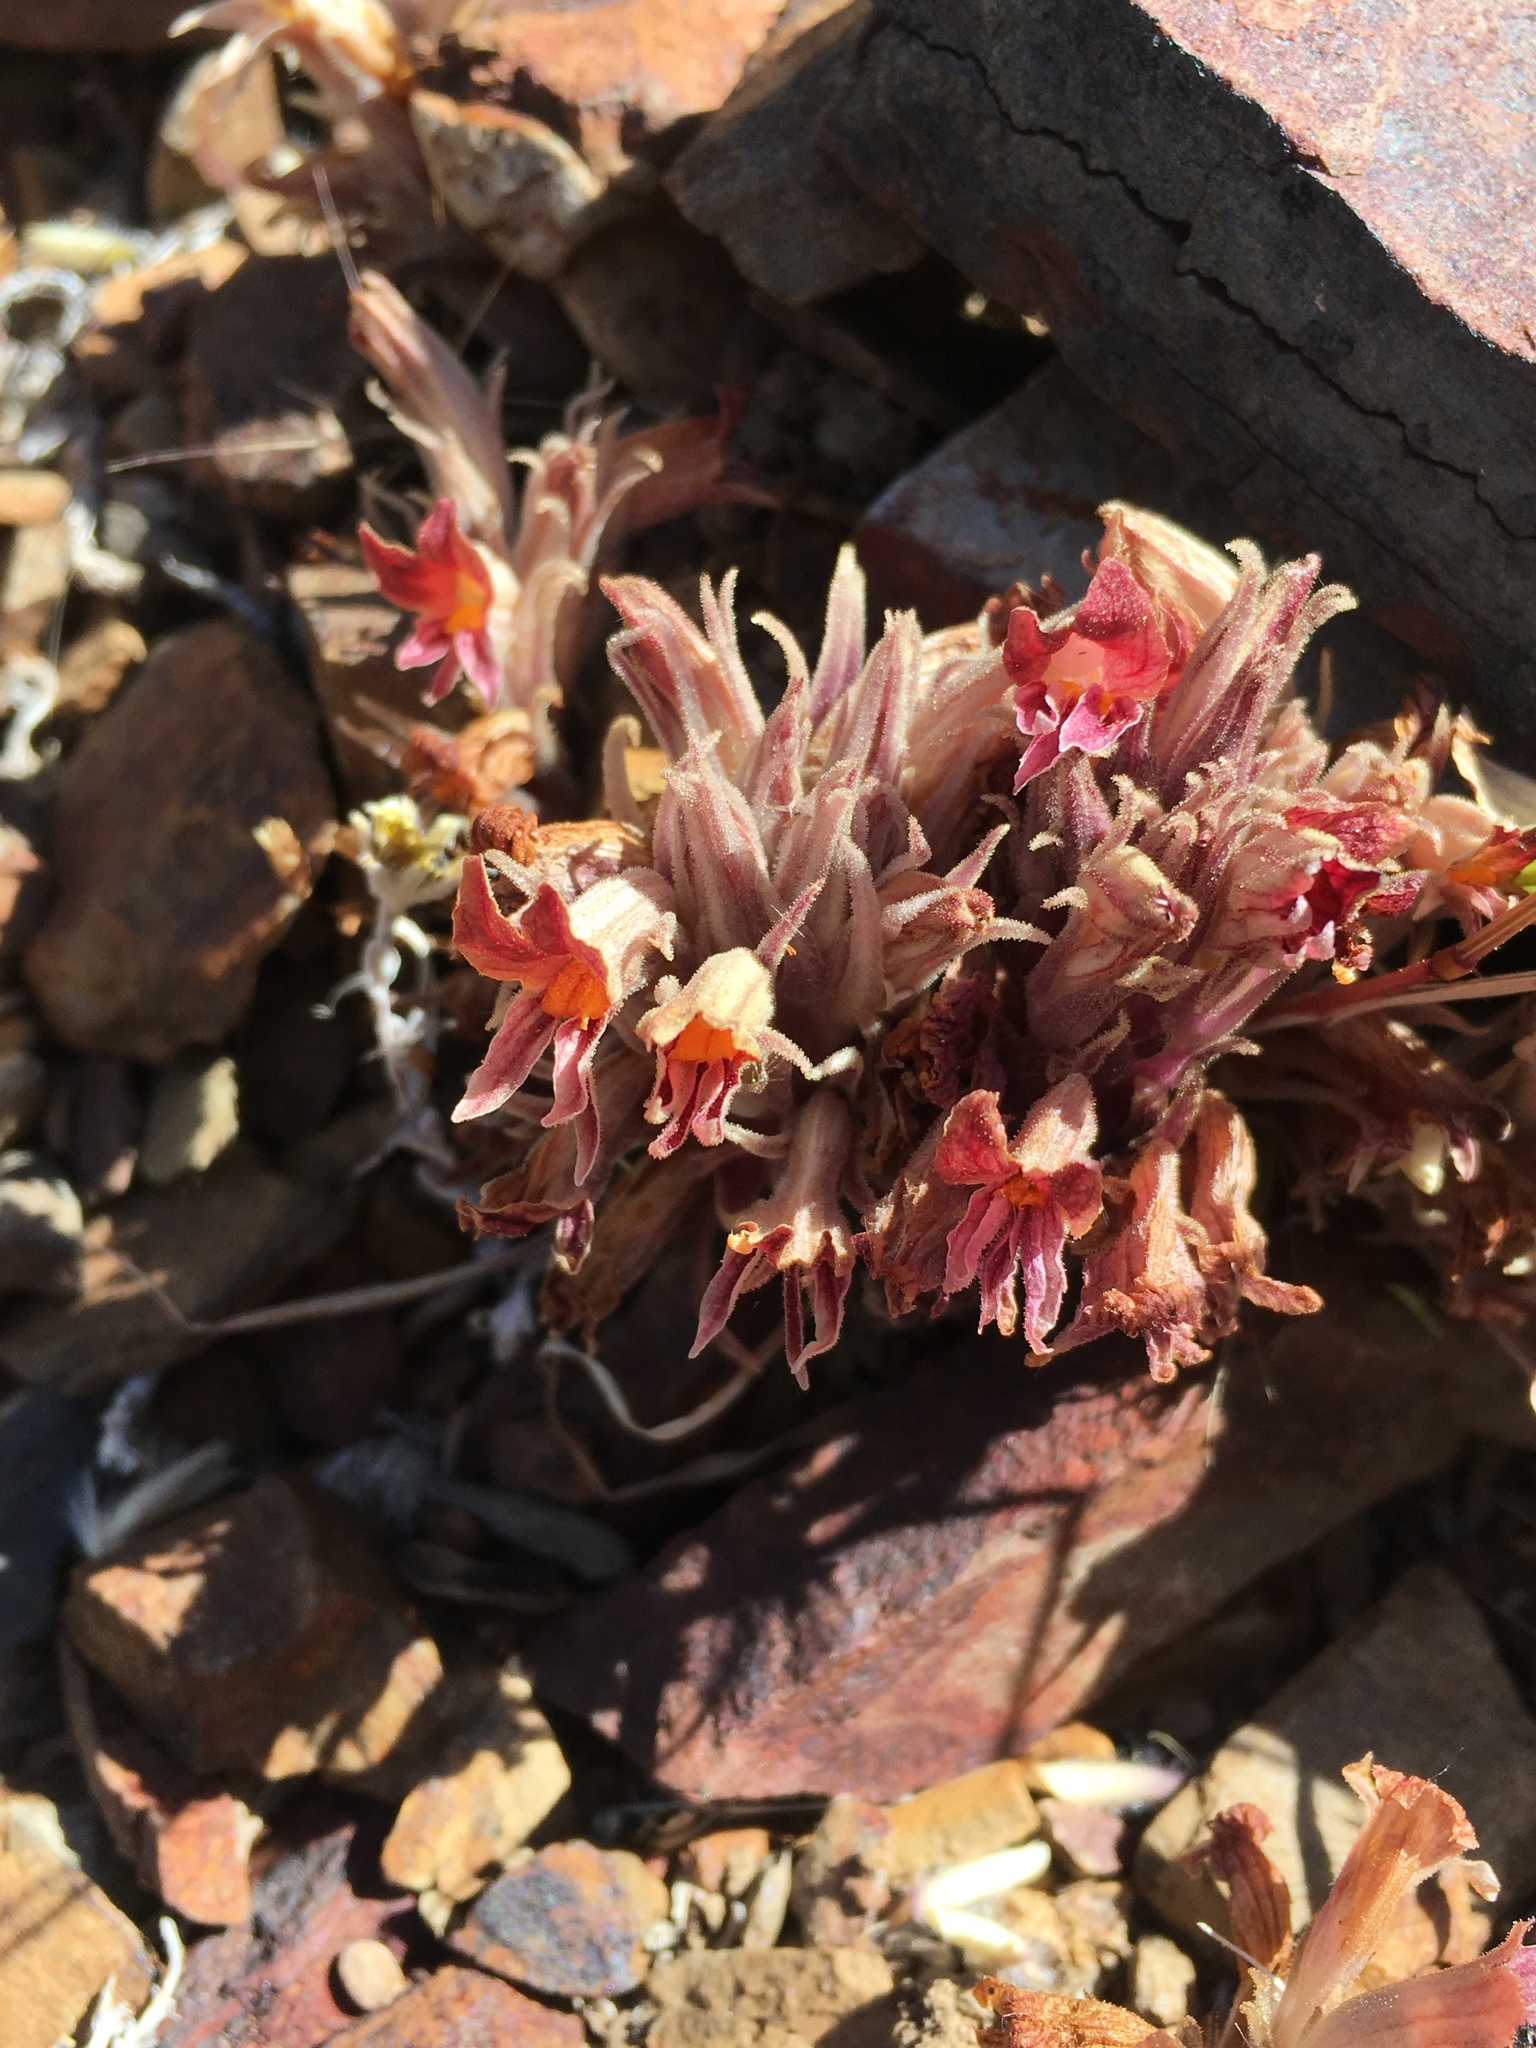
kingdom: Plantae
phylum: Tracheophyta
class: Magnoliopsida
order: Lamiales
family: Orobanchaceae
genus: Aphyllon
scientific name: Aphyllon corymbosum
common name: Flat-top broomrape
